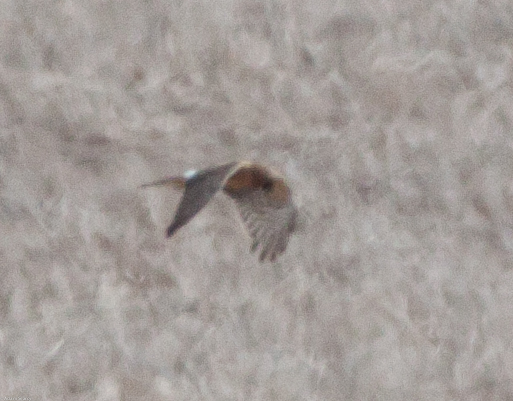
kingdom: Animalia
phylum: Chordata
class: Aves
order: Accipitriformes
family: Accipitridae
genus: Circus
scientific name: Circus cyaneus
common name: Hen harrier
